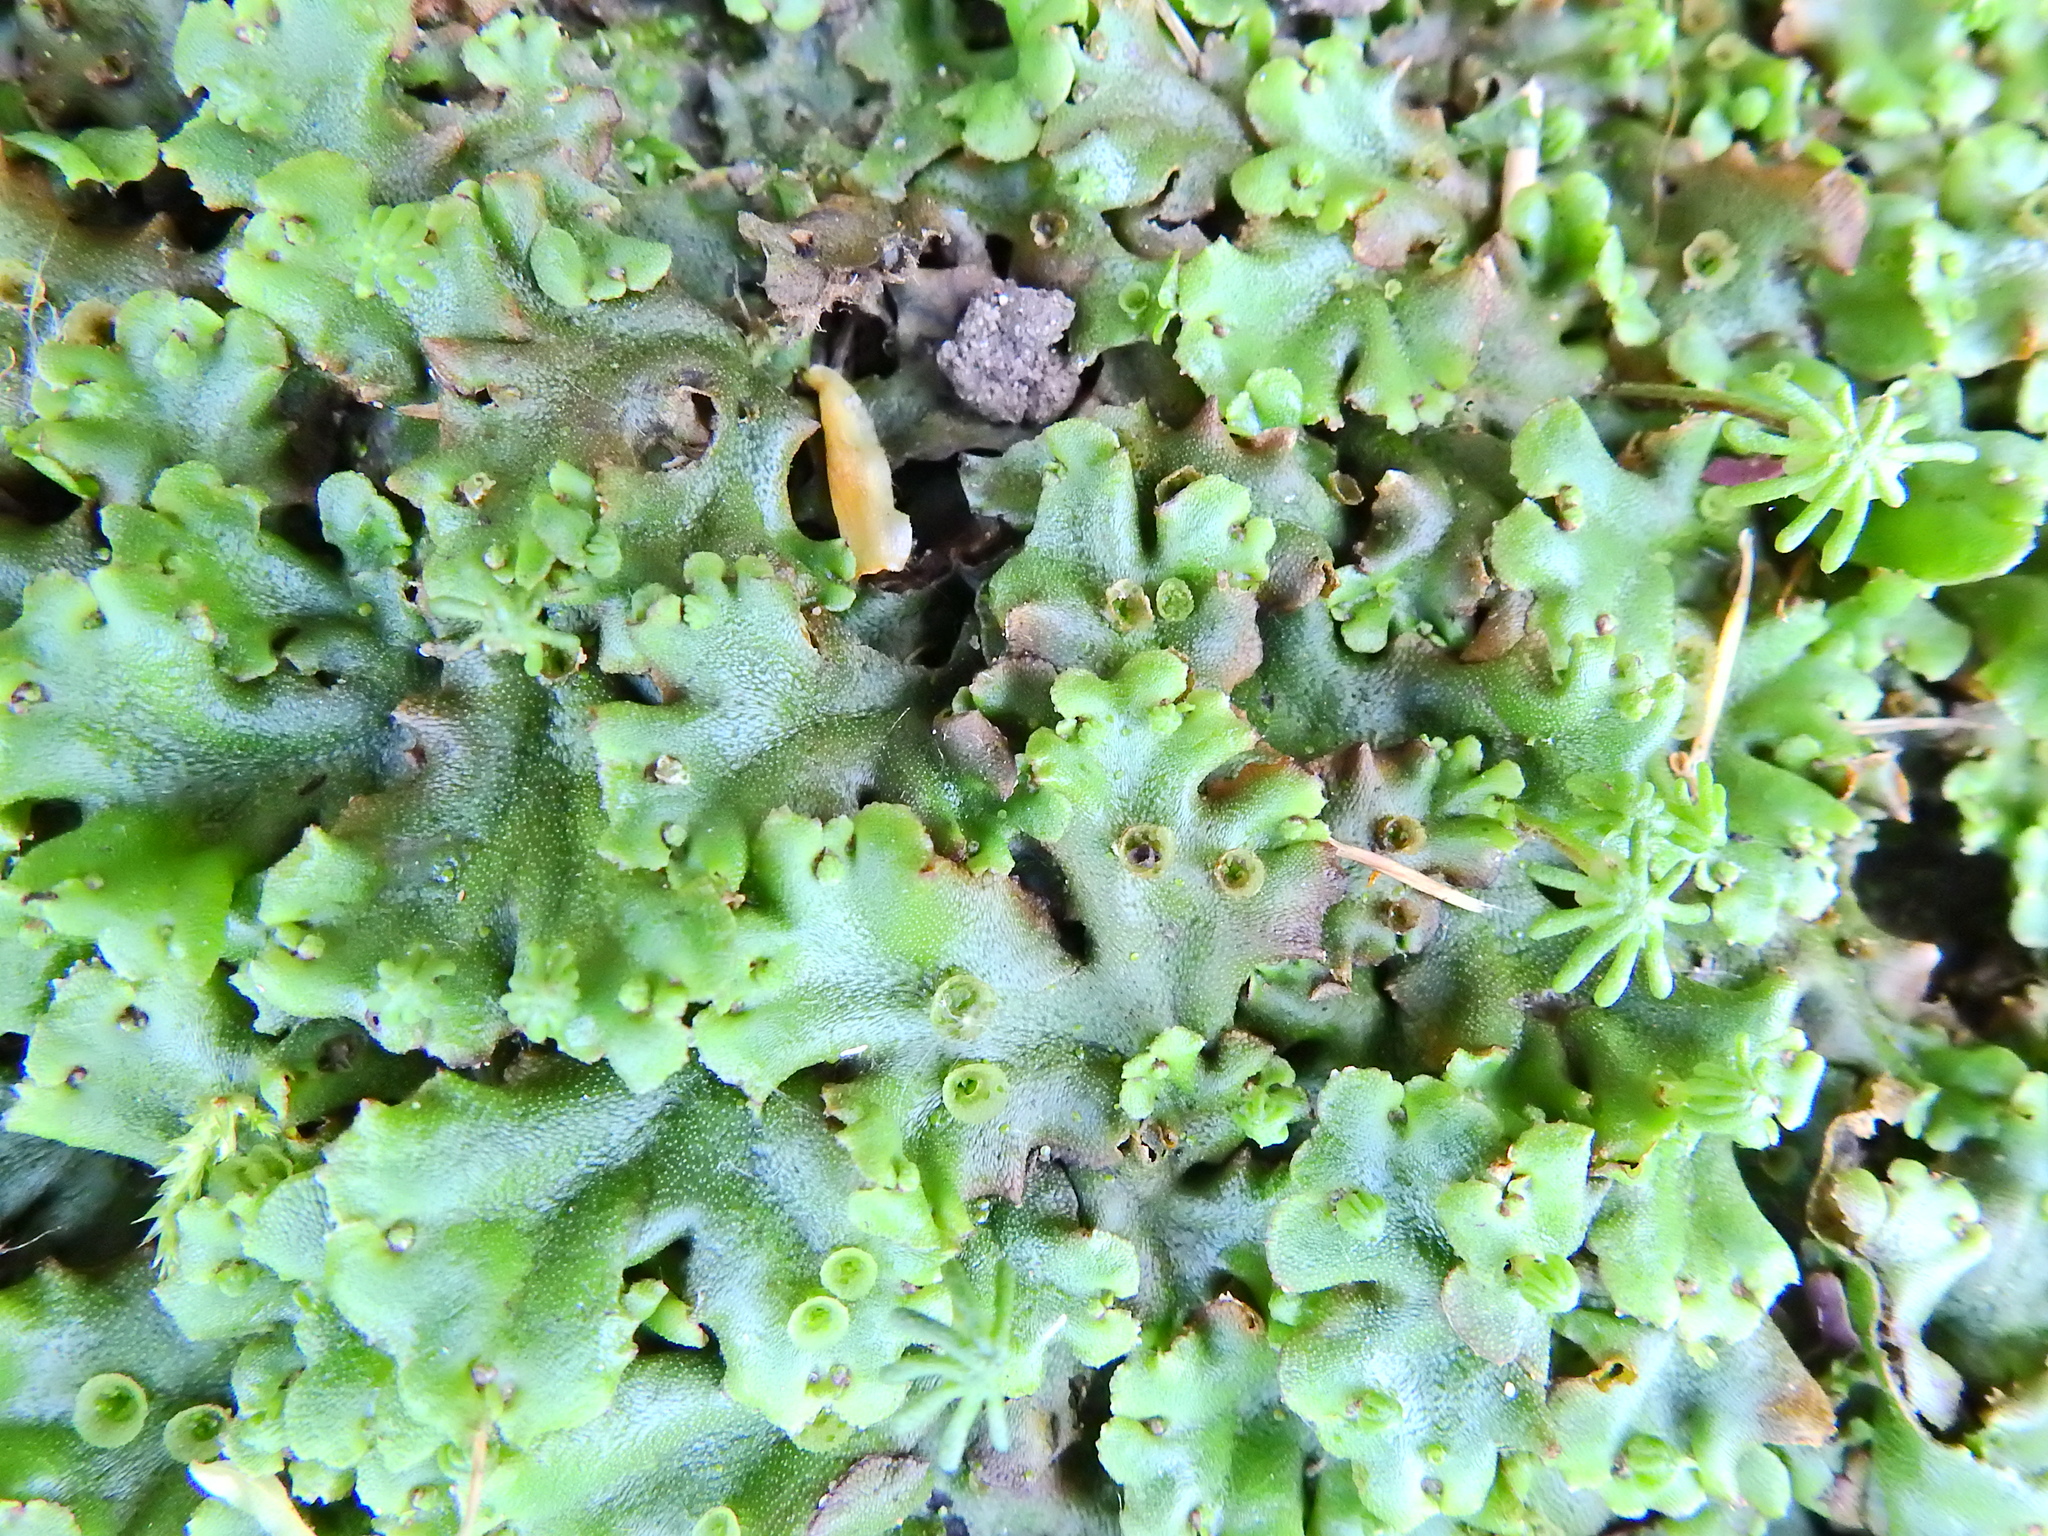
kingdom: Plantae
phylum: Marchantiophyta
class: Marchantiopsida
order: Marchantiales
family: Marchantiaceae
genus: Marchantia
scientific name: Marchantia polymorpha
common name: Common liverwort
